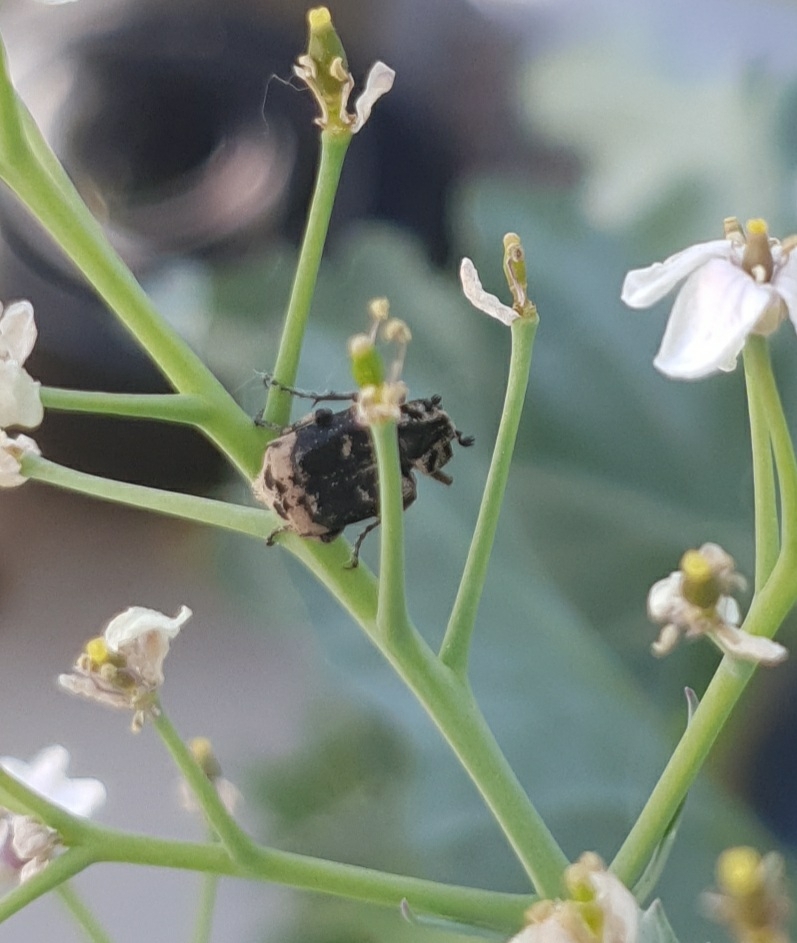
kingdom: Animalia
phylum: Arthropoda
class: Insecta
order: Coleoptera
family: Scarabaeidae
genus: Valgus
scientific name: Valgus hemipterus
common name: Bug flower chafer
